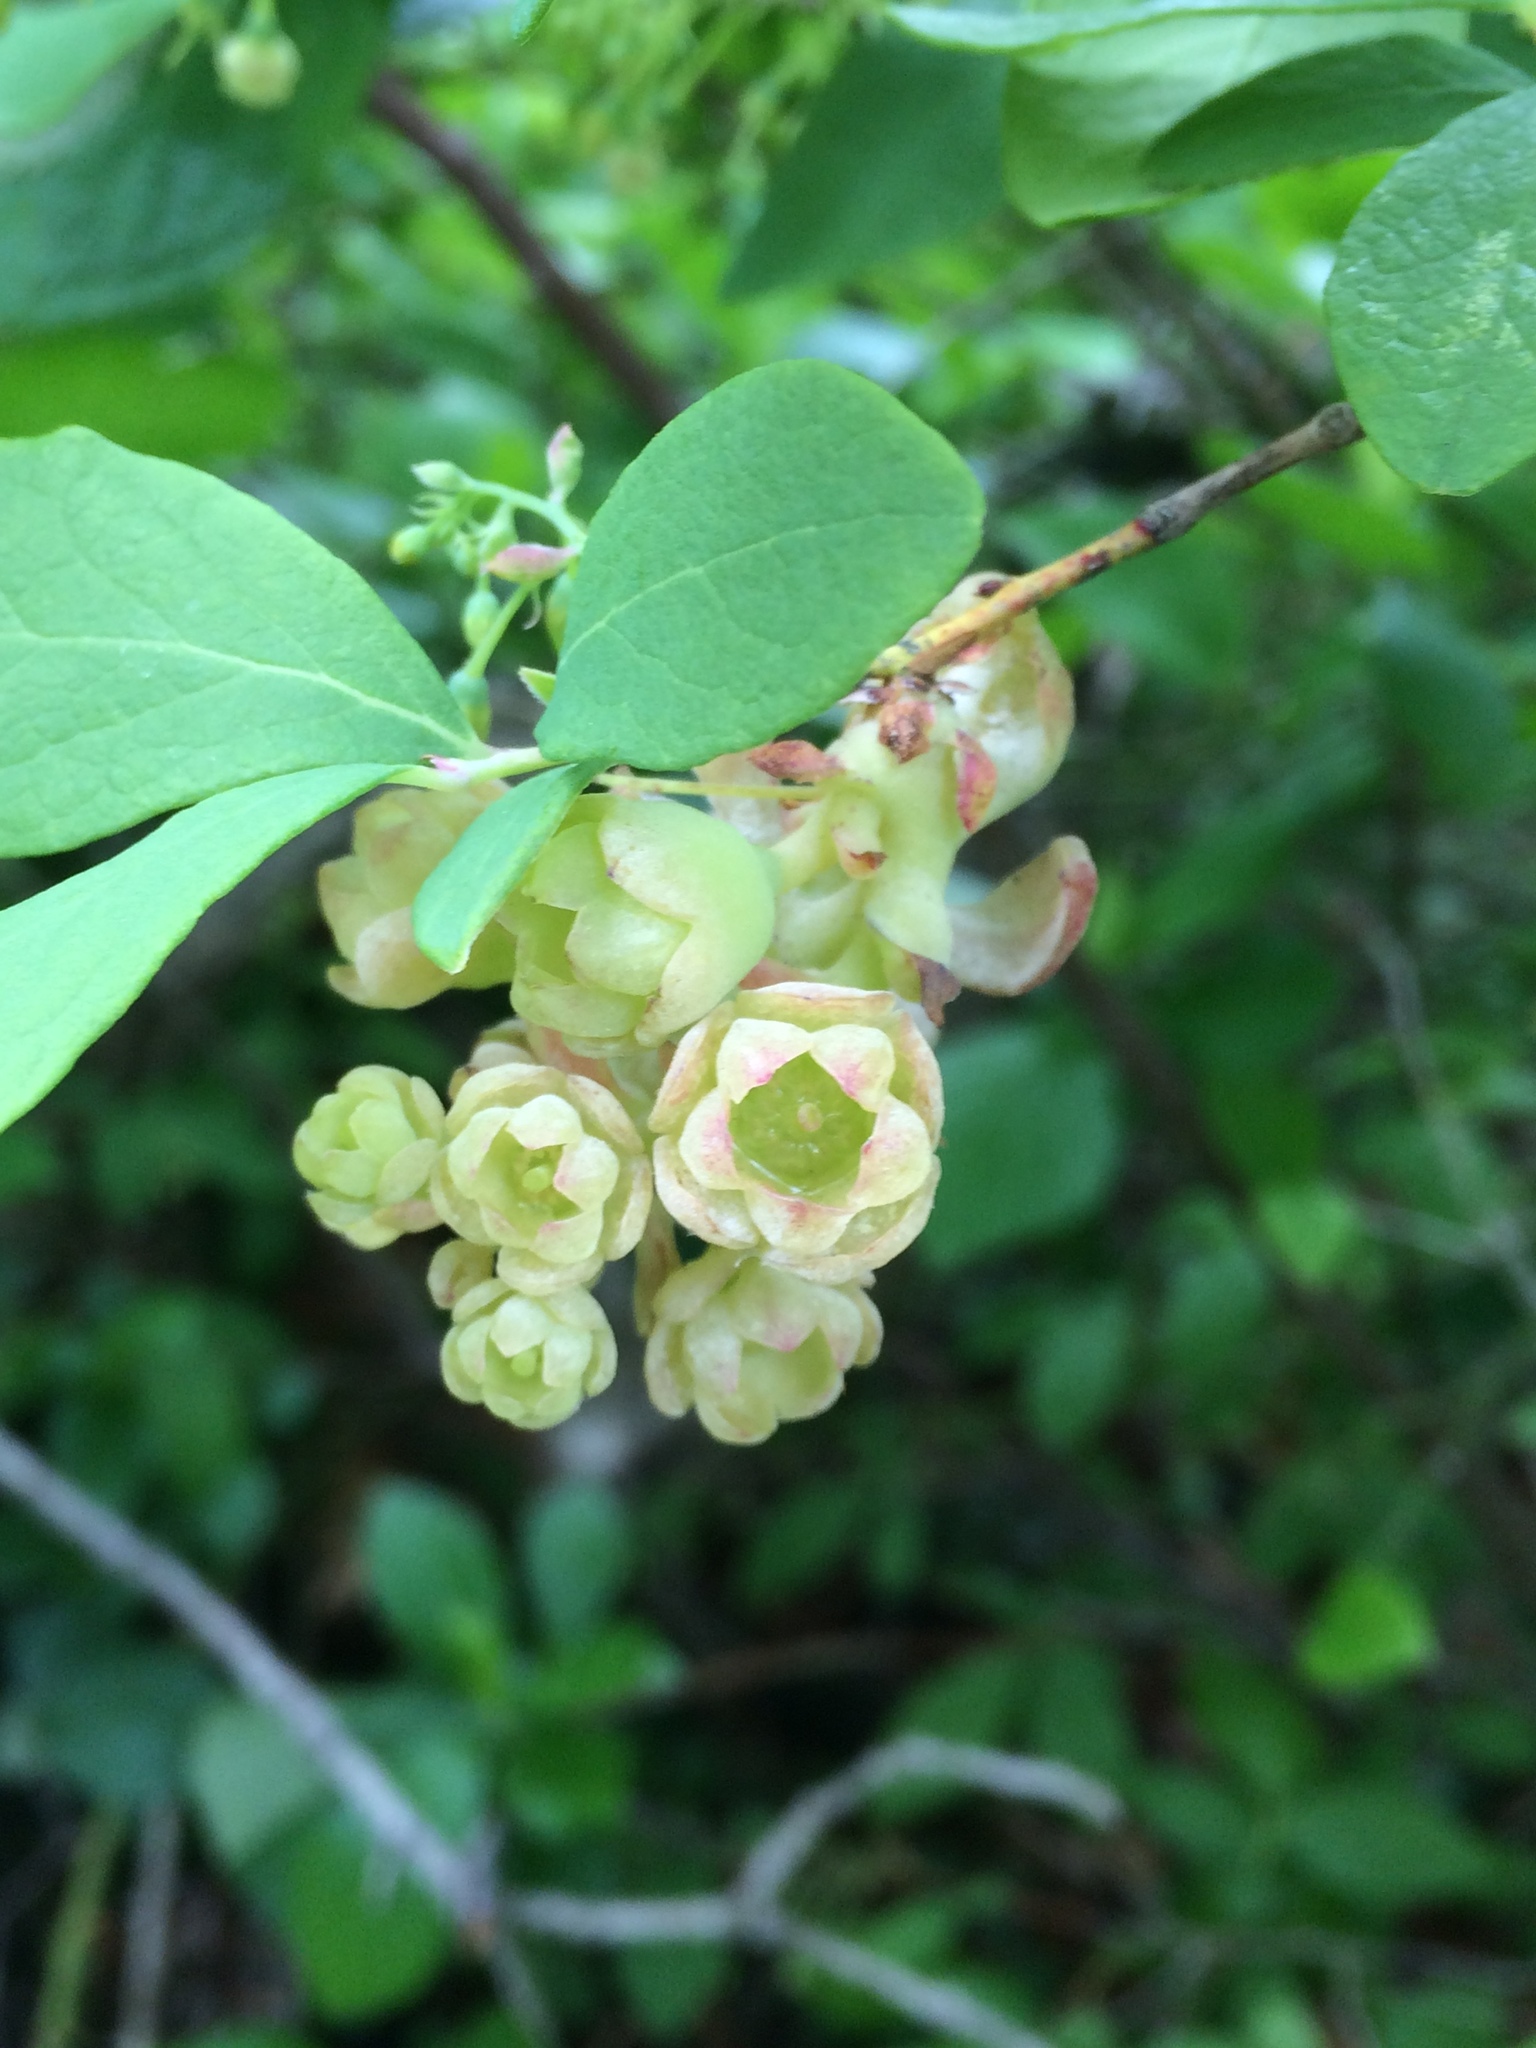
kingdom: Plantae
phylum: Tracheophyta
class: Magnoliopsida
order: Ericales
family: Ericaceae
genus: Gaylussacia
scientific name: Gaylussacia frondosa
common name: Dangleberry
